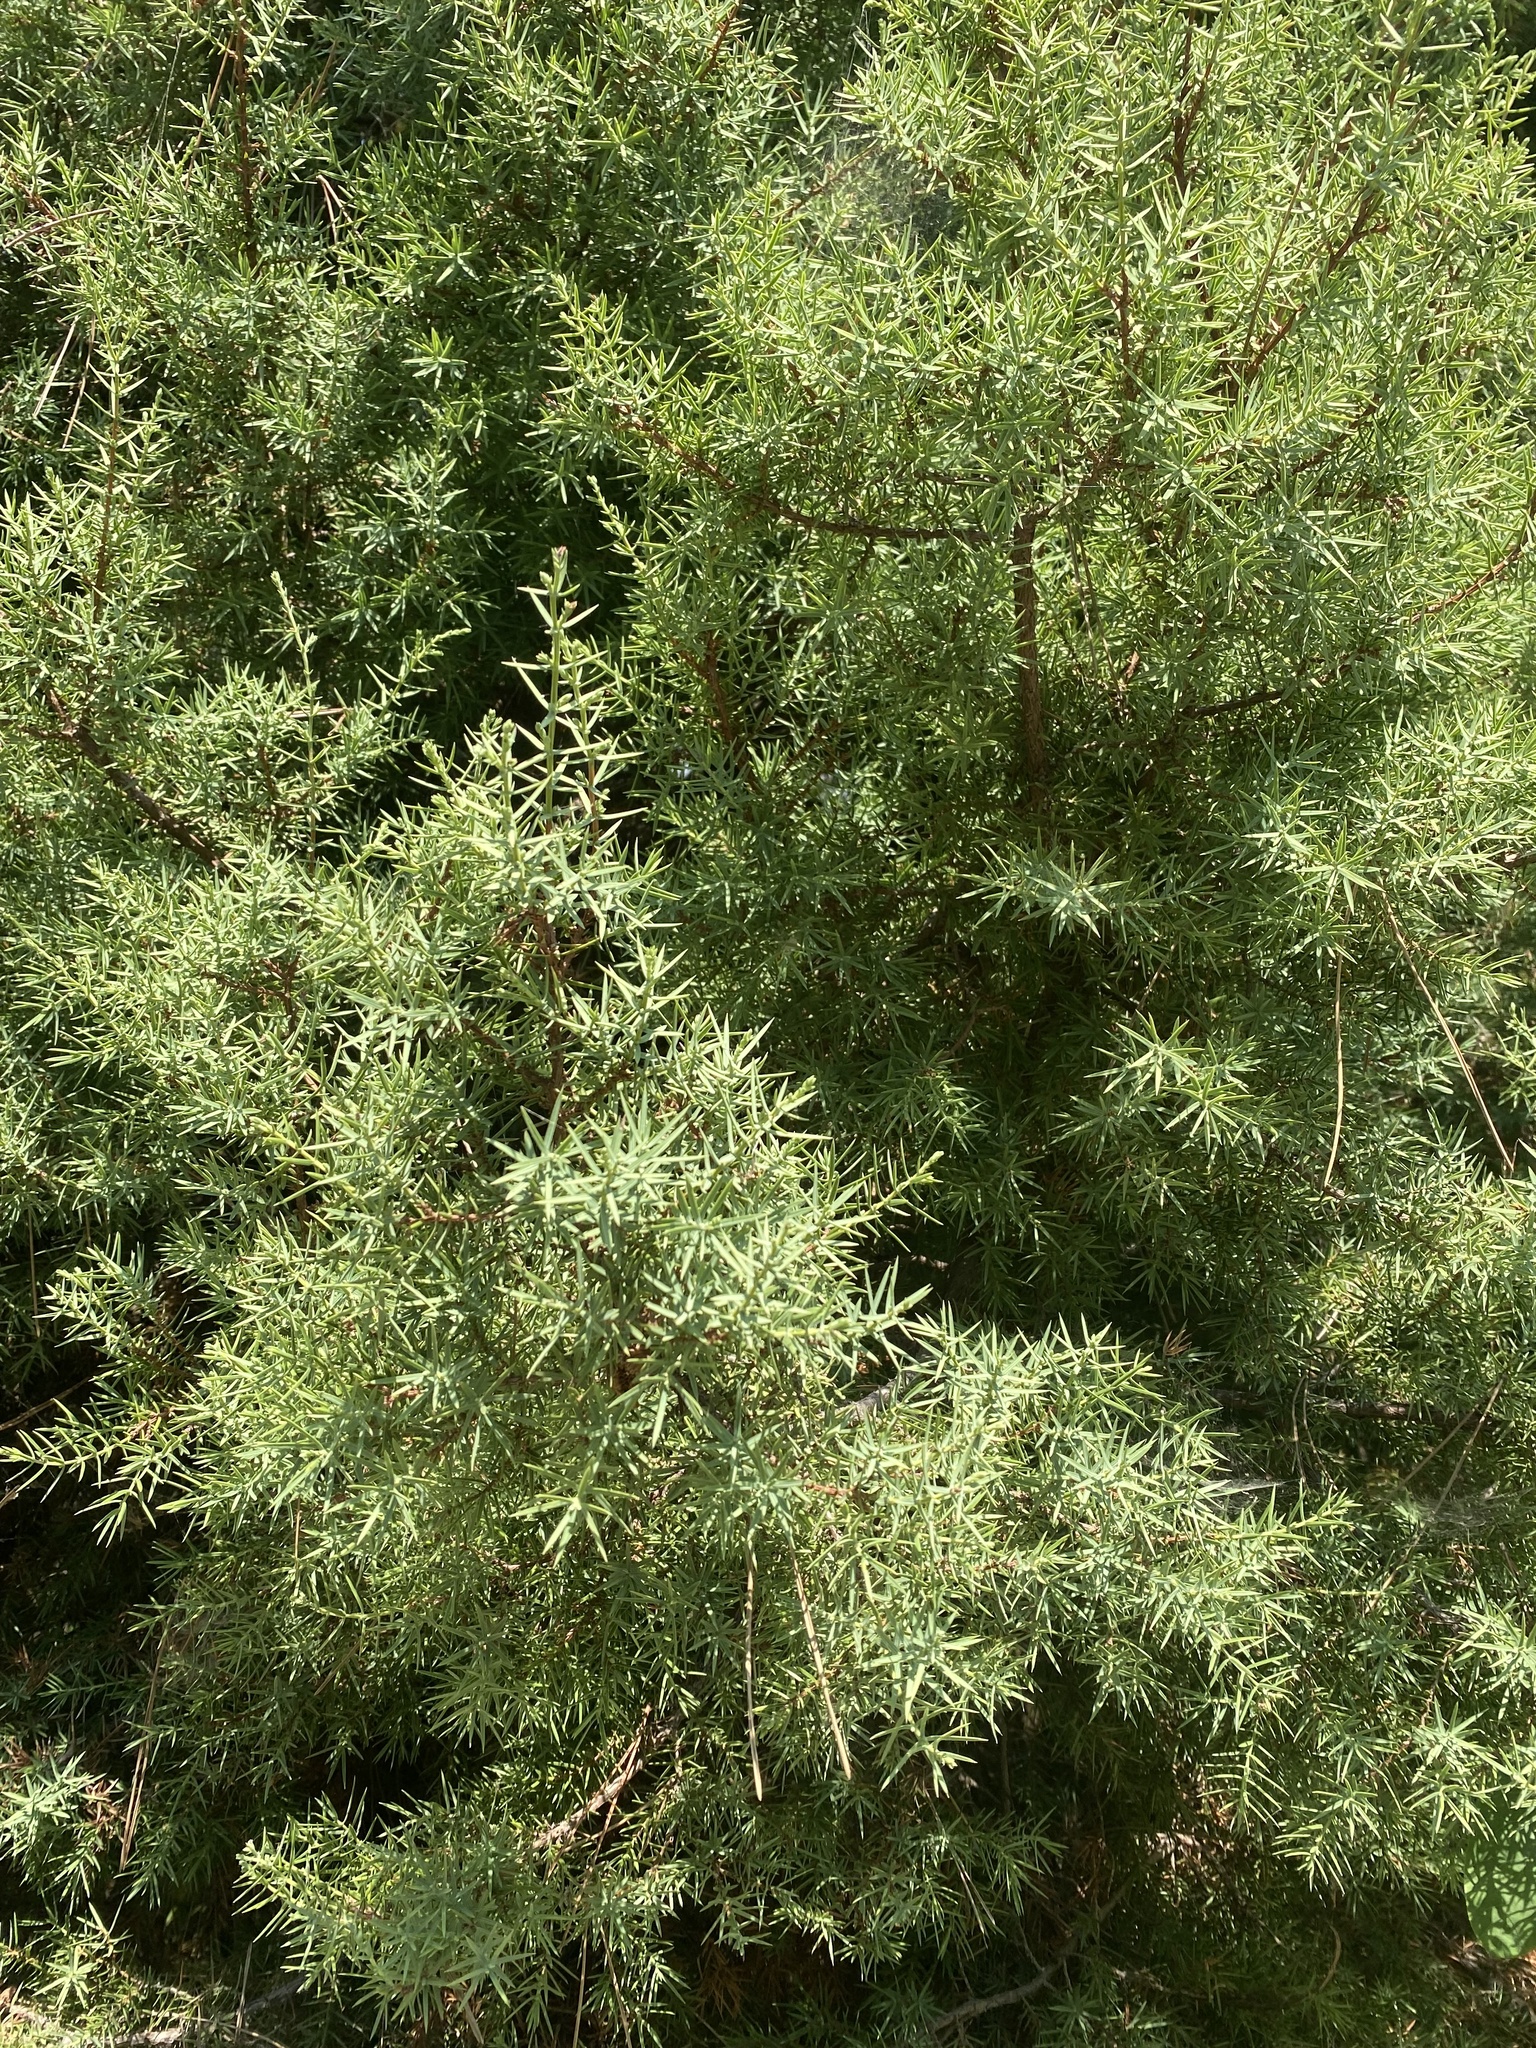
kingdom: Plantae
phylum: Tracheophyta
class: Pinopsida
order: Pinales
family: Cupressaceae
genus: Juniperus
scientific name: Juniperus oxycedrus
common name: Prickly juniper
